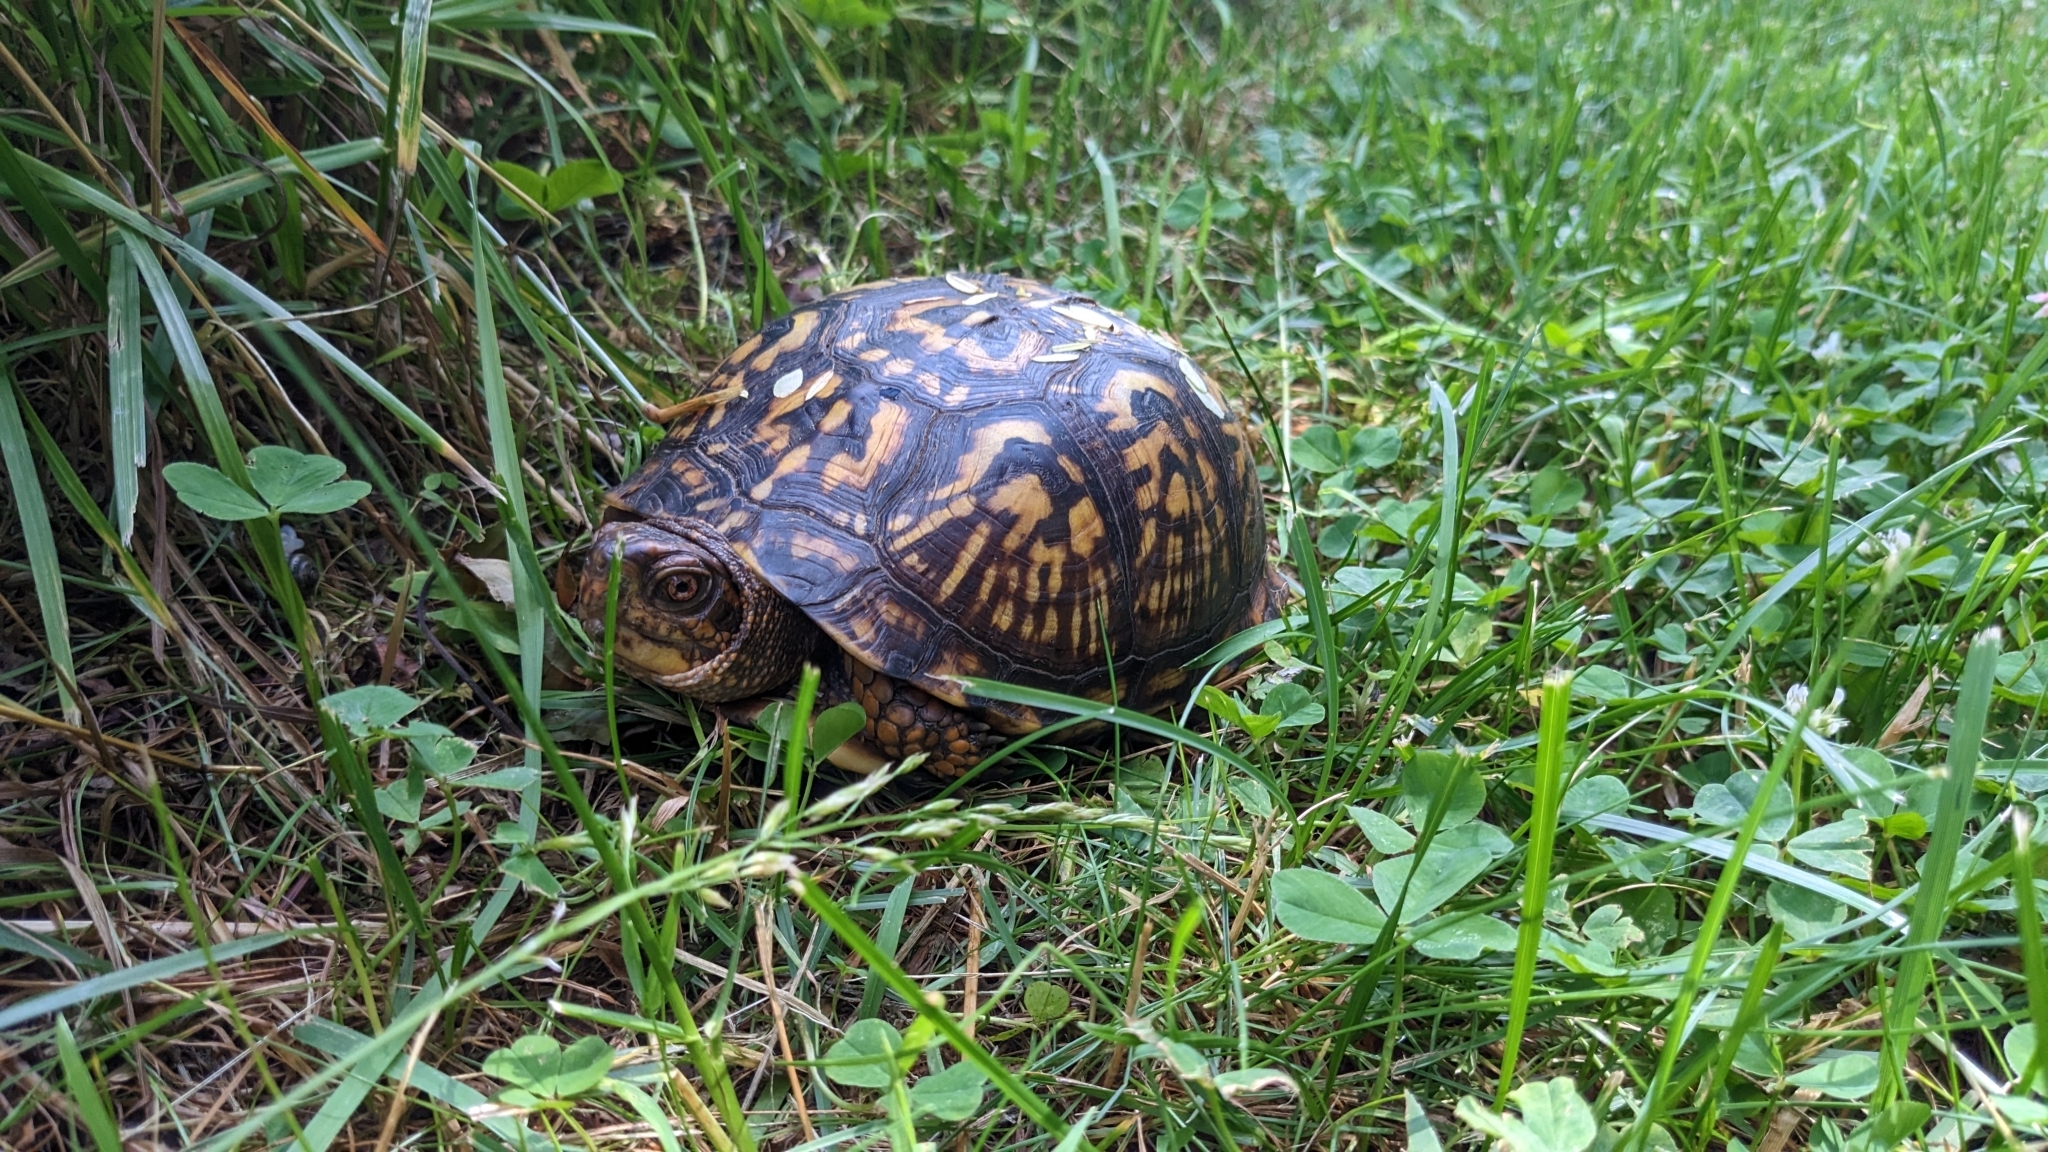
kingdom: Animalia
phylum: Chordata
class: Testudines
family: Emydidae
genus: Terrapene
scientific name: Terrapene carolina
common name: Common box turtle
